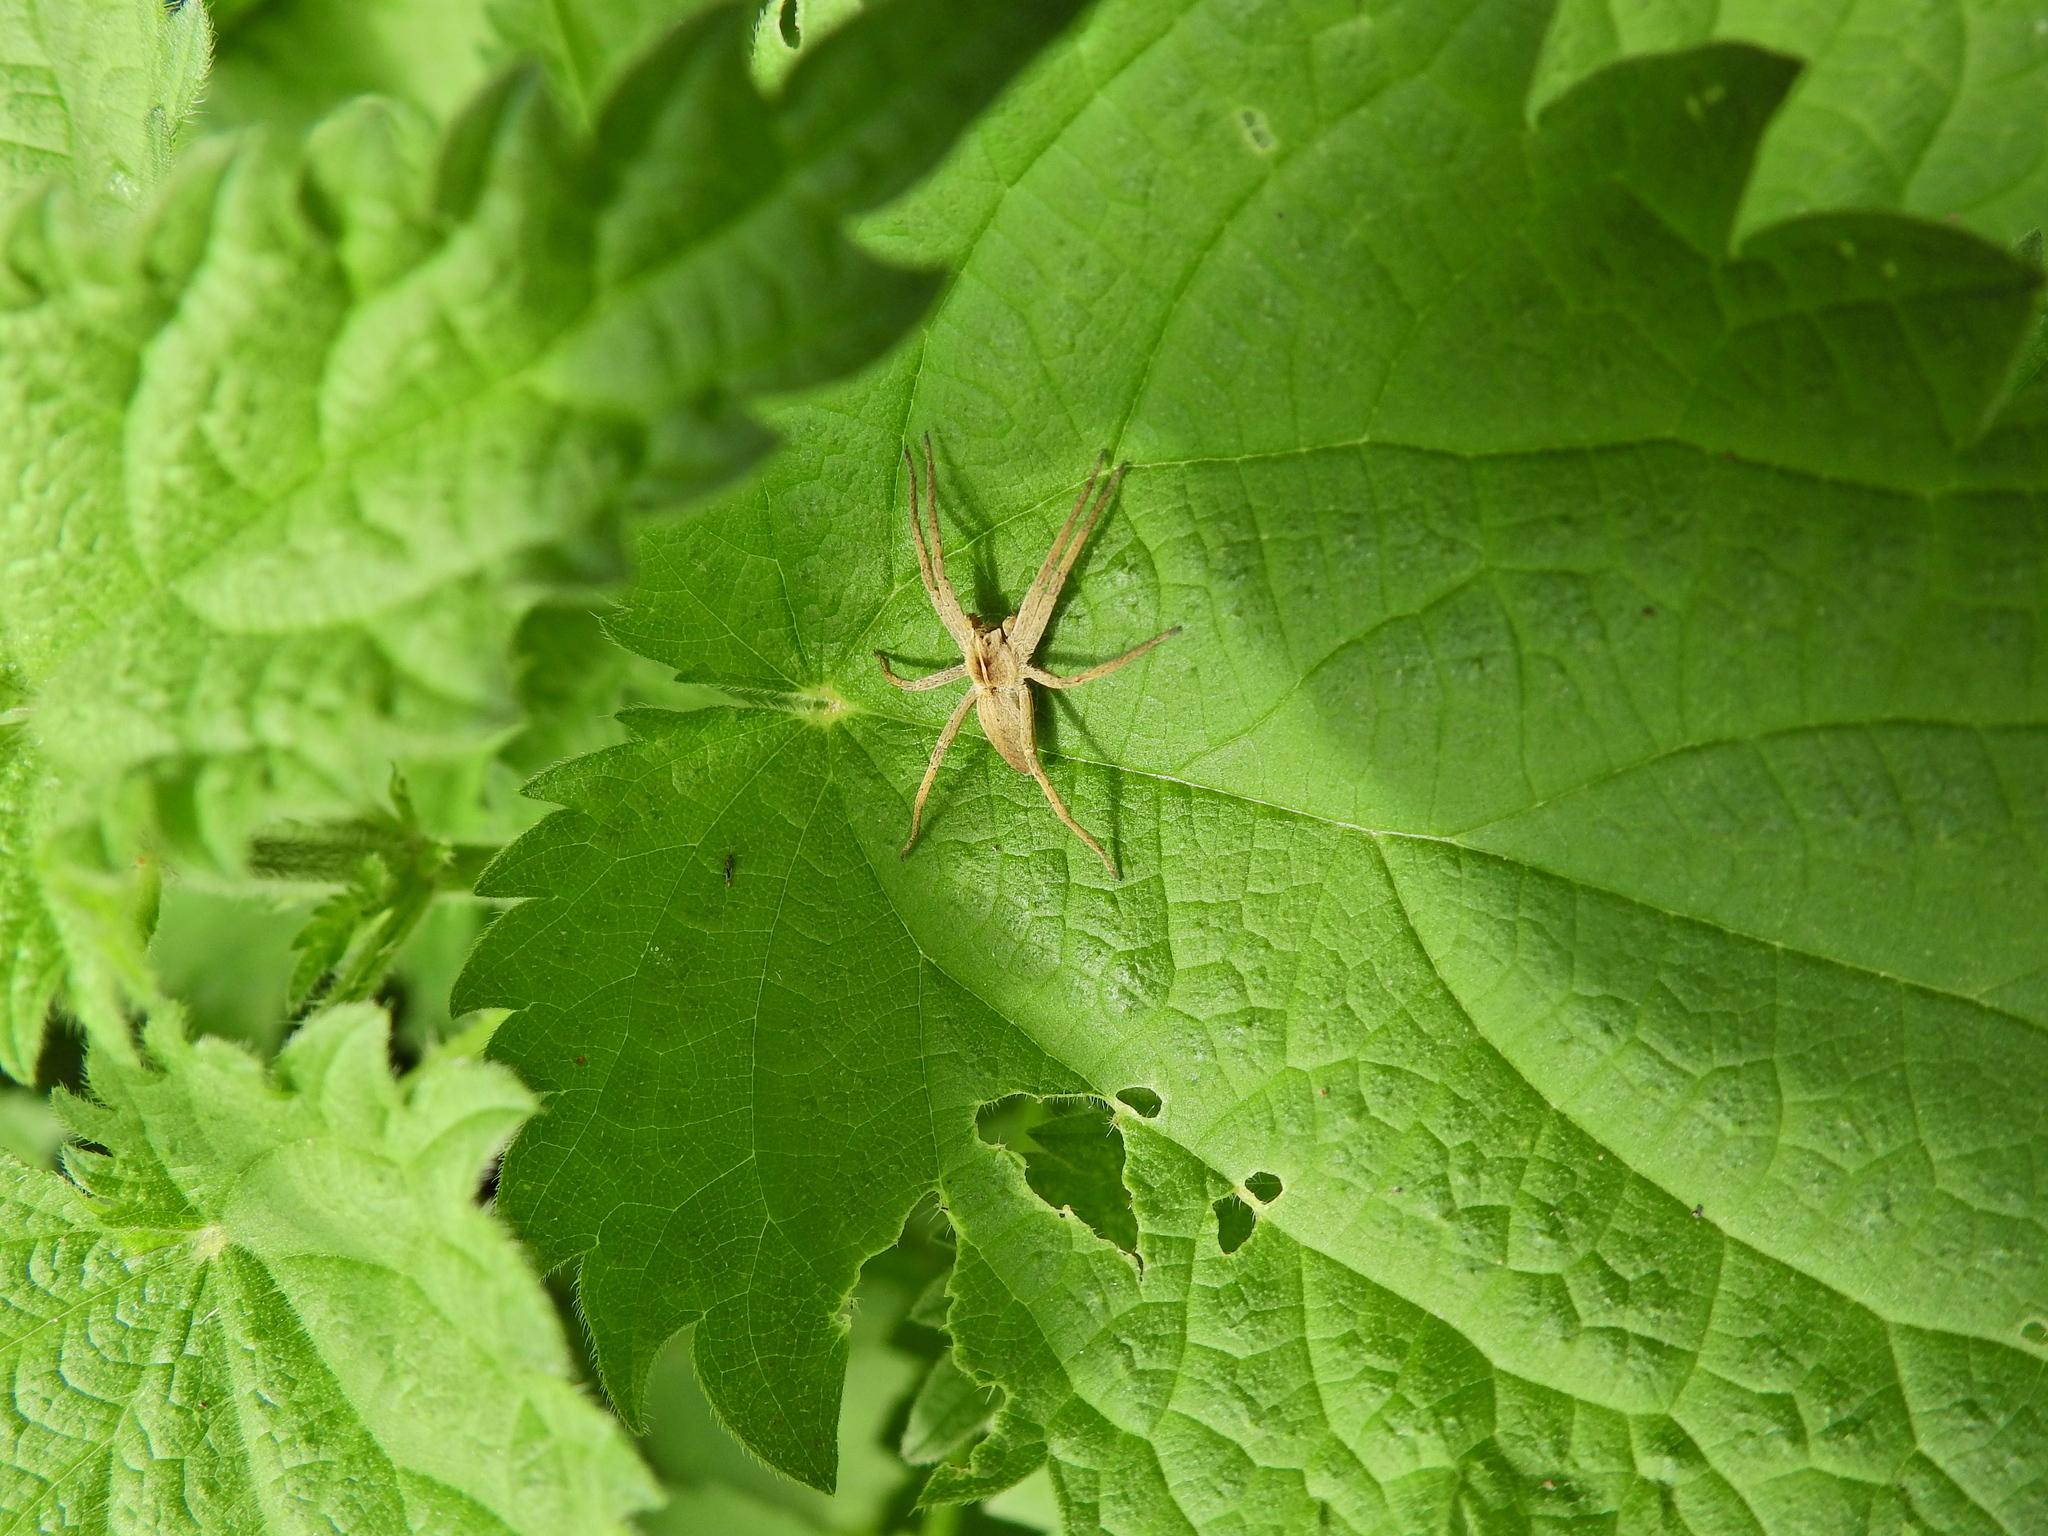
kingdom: Animalia
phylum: Arthropoda
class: Arachnida
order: Araneae
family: Pisauridae
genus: Pisaura
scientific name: Pisaura mirabilis
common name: Tent spider
